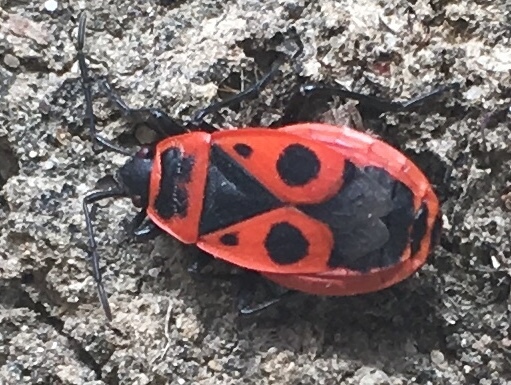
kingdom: Animalia
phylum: Arthropoda
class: Insecta
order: Hemiptera
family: Pyrrhocoridae
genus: Pyrrhocoris
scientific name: Pyrrhocoris apterus
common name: Firebug
